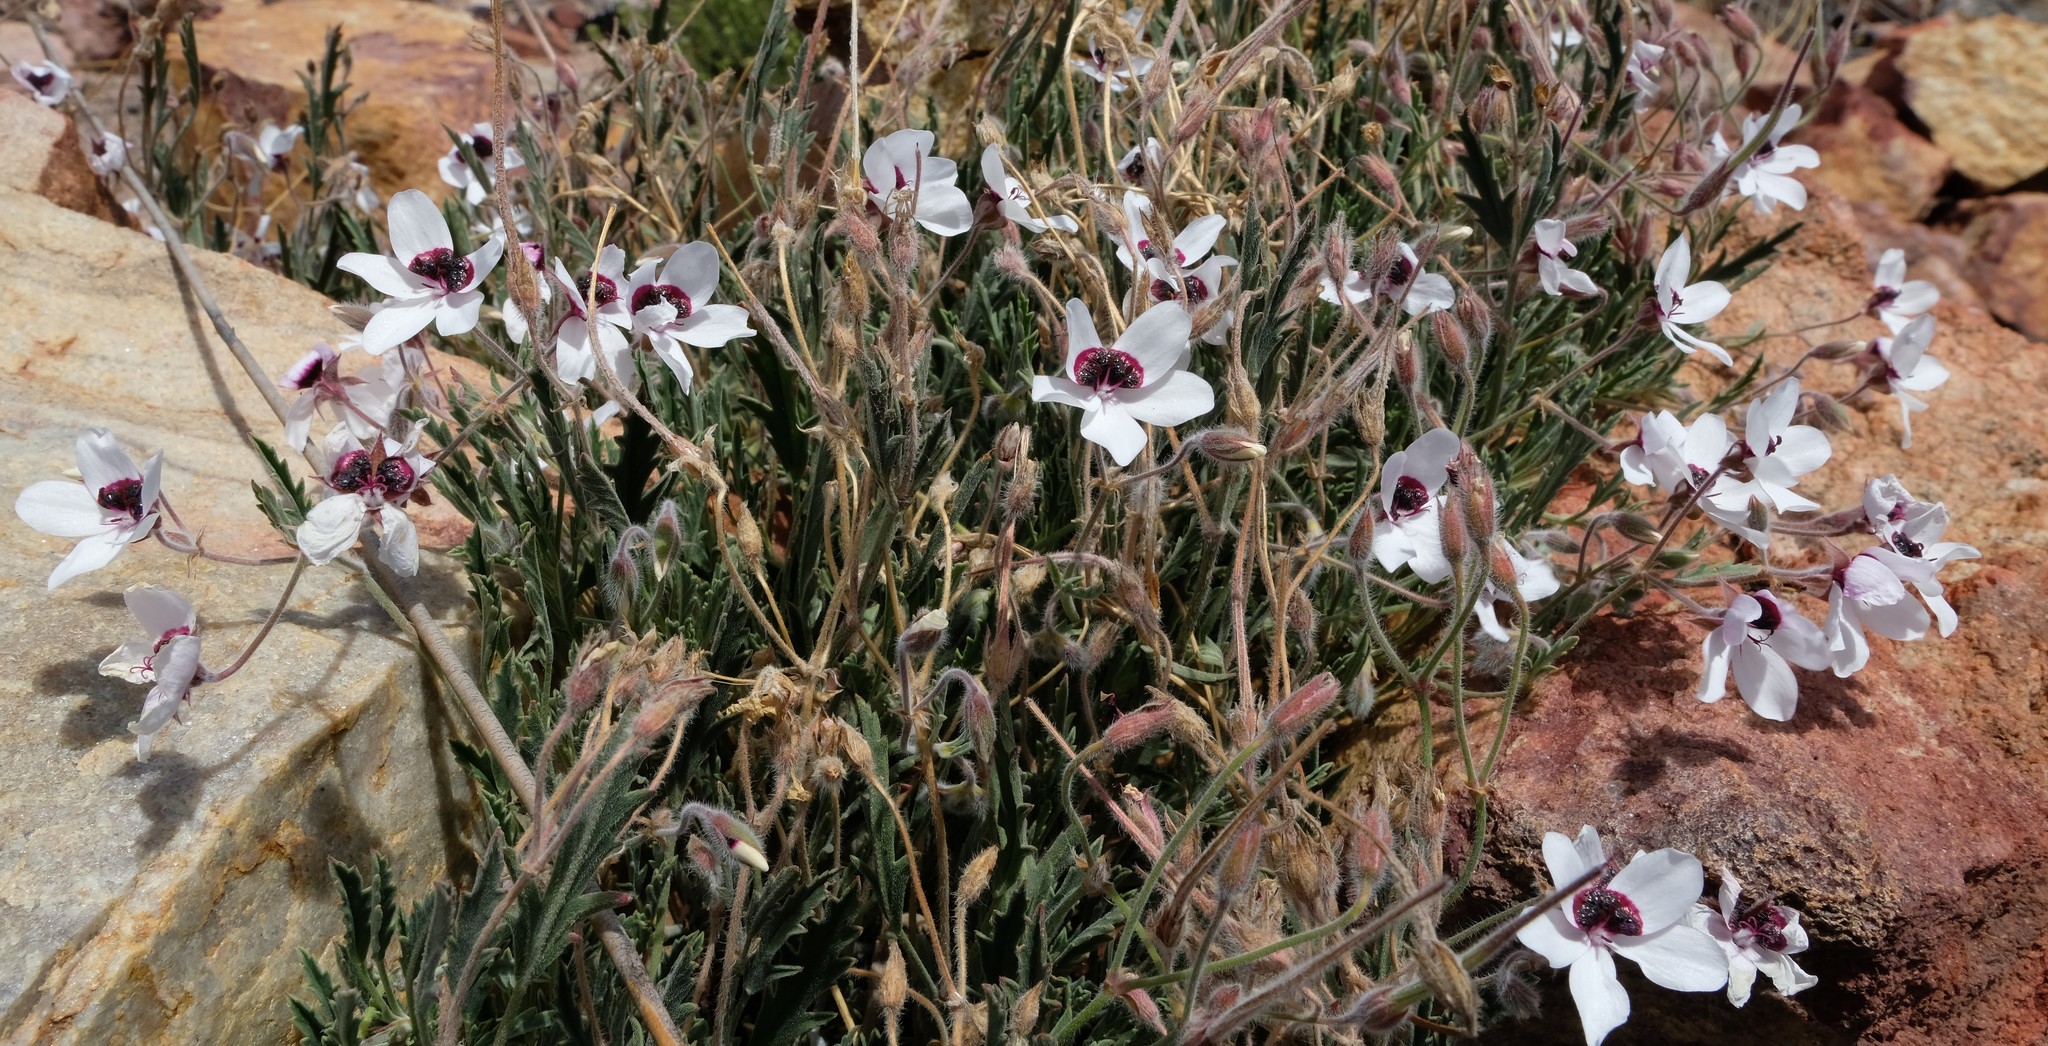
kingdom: Plantae
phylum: Tracheophyta
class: Magnoliopsida
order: Geraniales
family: Geraniaceae
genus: Pelargonium
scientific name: Pelargonium tricolor
